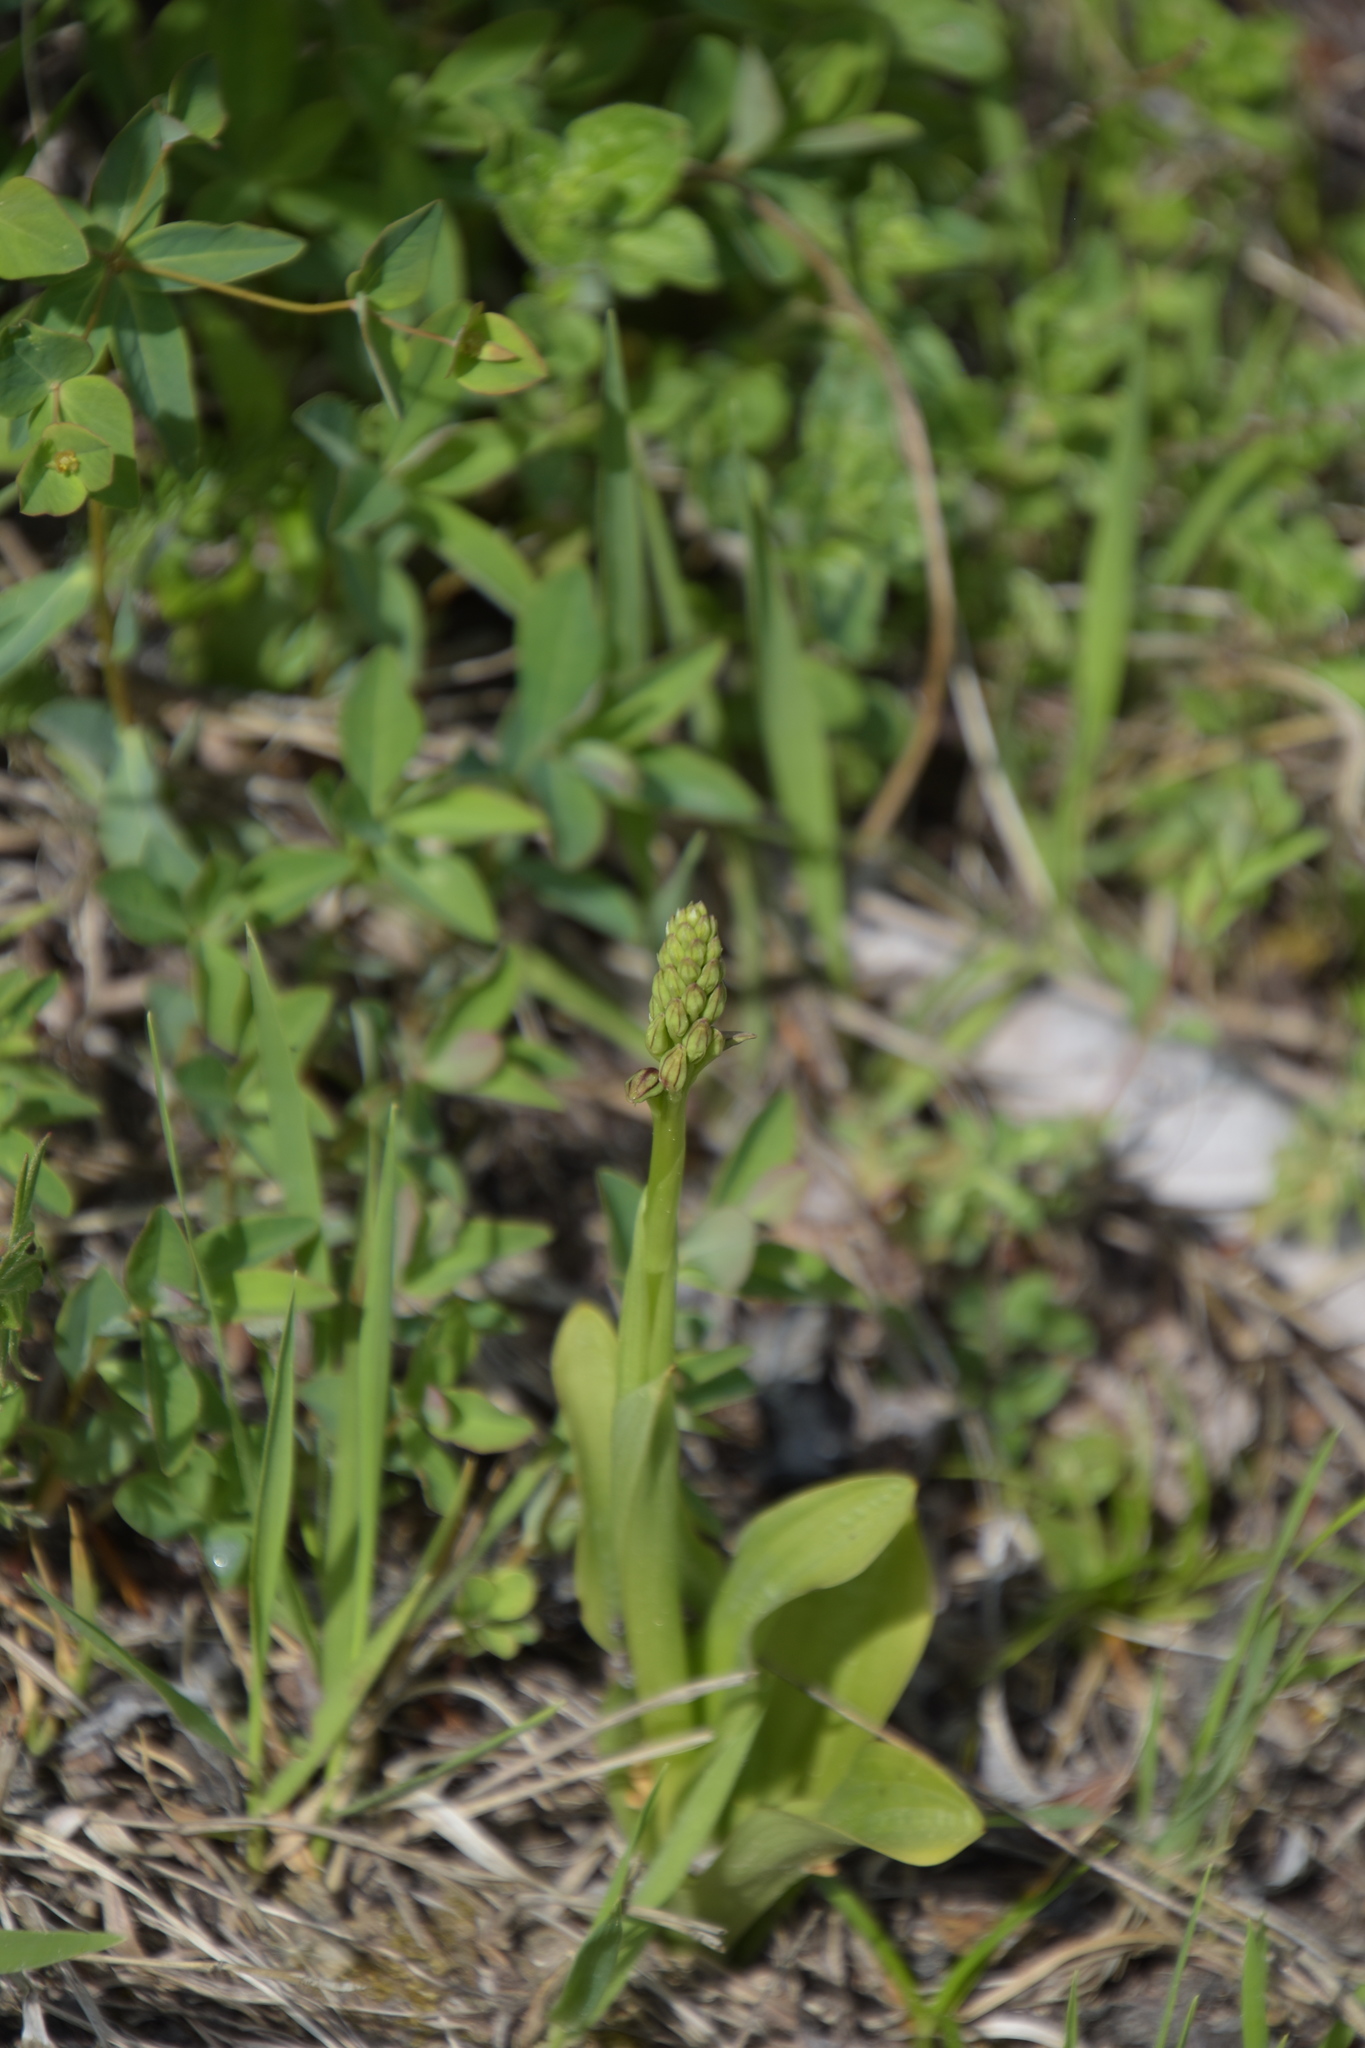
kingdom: Plantae
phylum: Tracheophyta
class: Liliopsida
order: Asparagales
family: Orchidaceae
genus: Orchis
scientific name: Orchis anthropophora
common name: Man orchid
